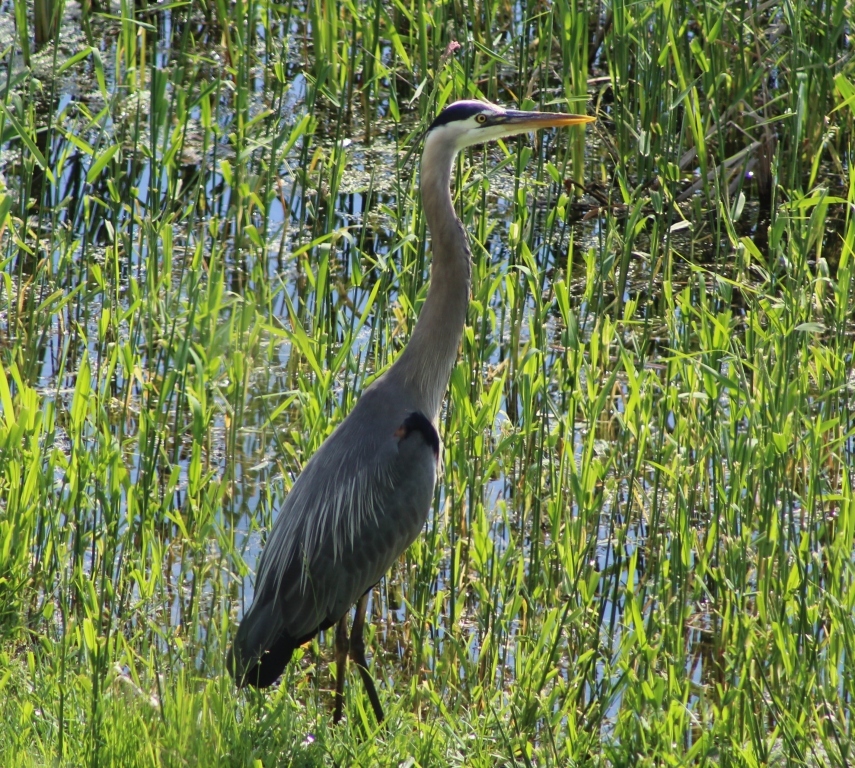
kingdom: Animalia
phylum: Chordata
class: Aves
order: Pelecaniformes
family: Ardeidae
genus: Ardea
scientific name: Ardea herodias
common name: Great blue heron
